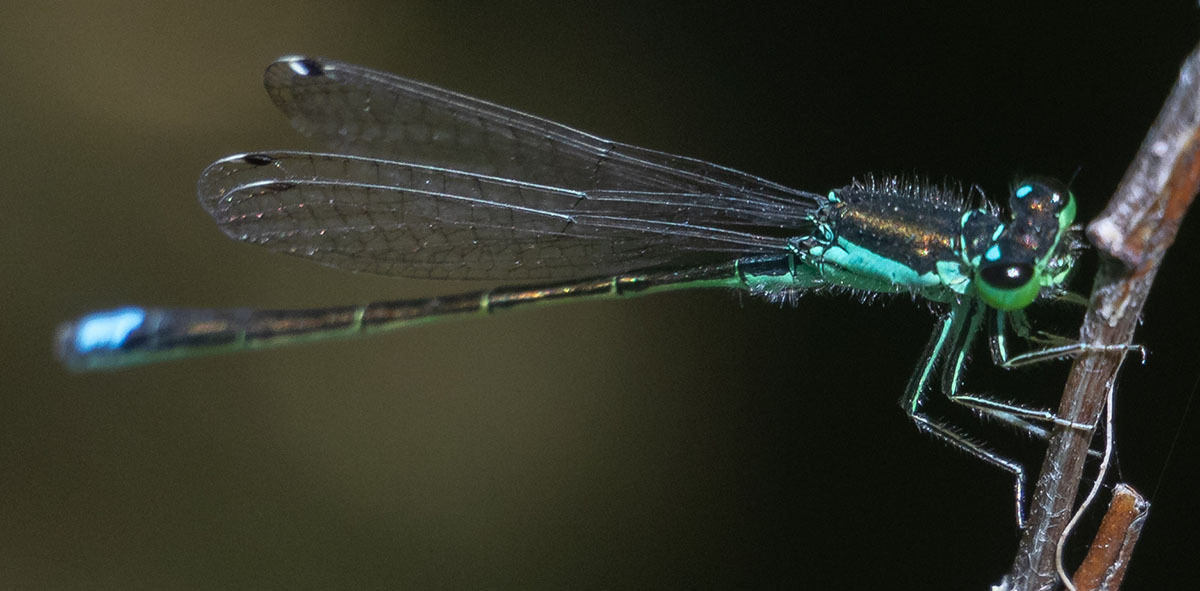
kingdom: Animalia
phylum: Arthropoda
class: Insecta
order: Odonata
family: Coenagrionidae
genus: Ischnura
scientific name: Ischnura denticollis
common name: Black-fronted forktail
